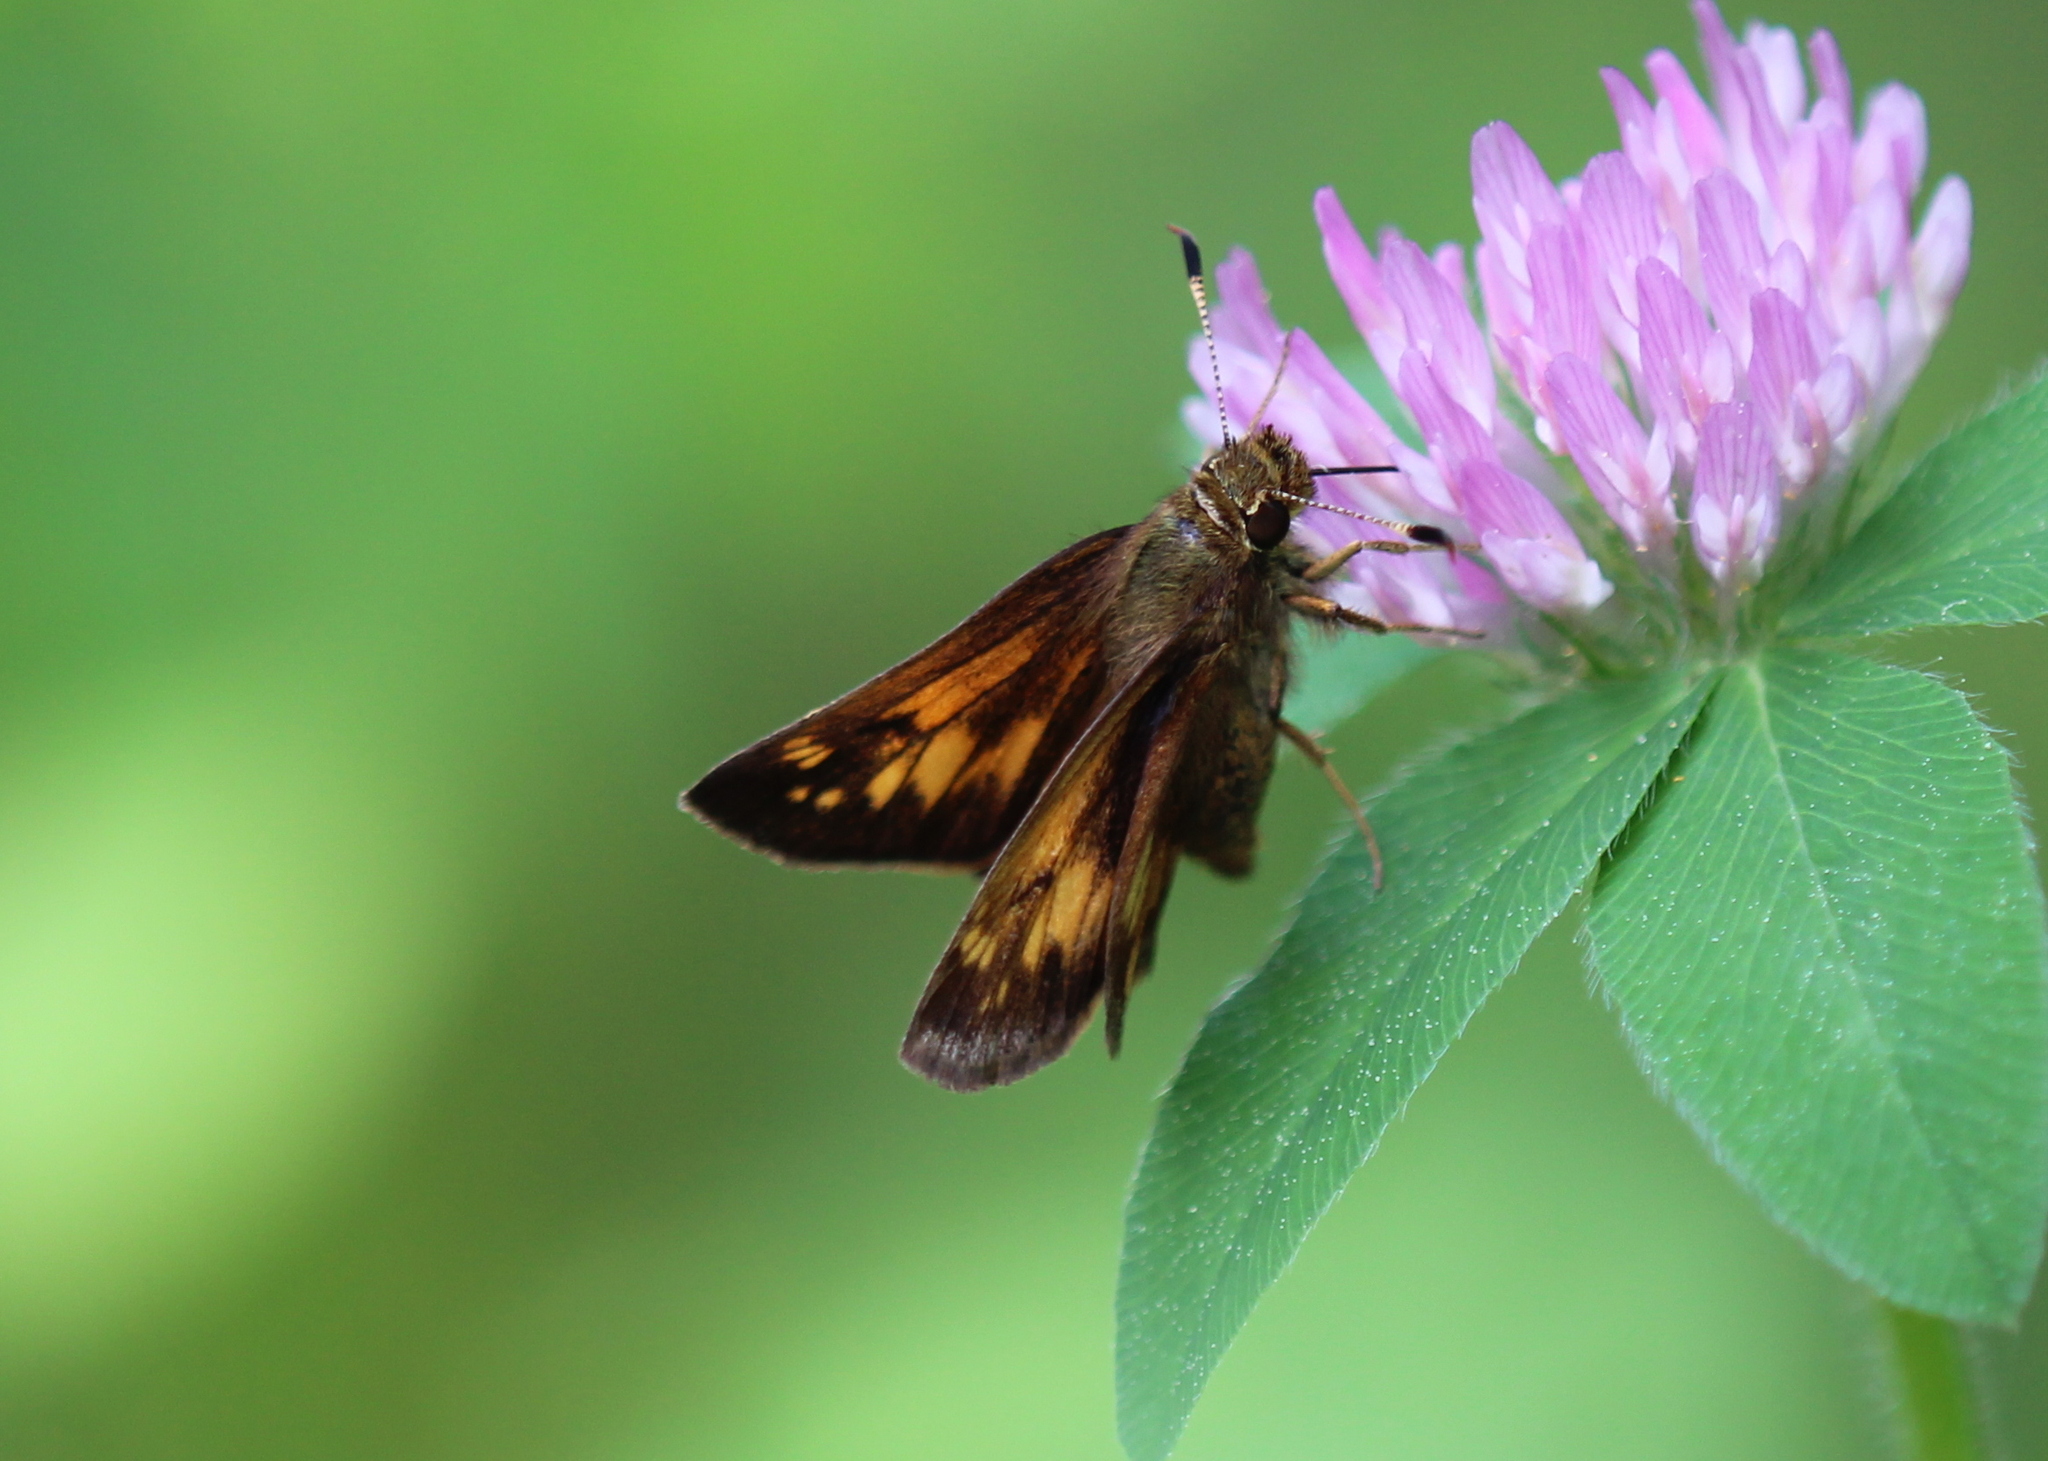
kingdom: Animalia
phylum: Arthropoda
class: Insecta
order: Lepidoptera
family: Hesperiidae
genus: Lon
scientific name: Lon hobomok
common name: Hobomok skipper
